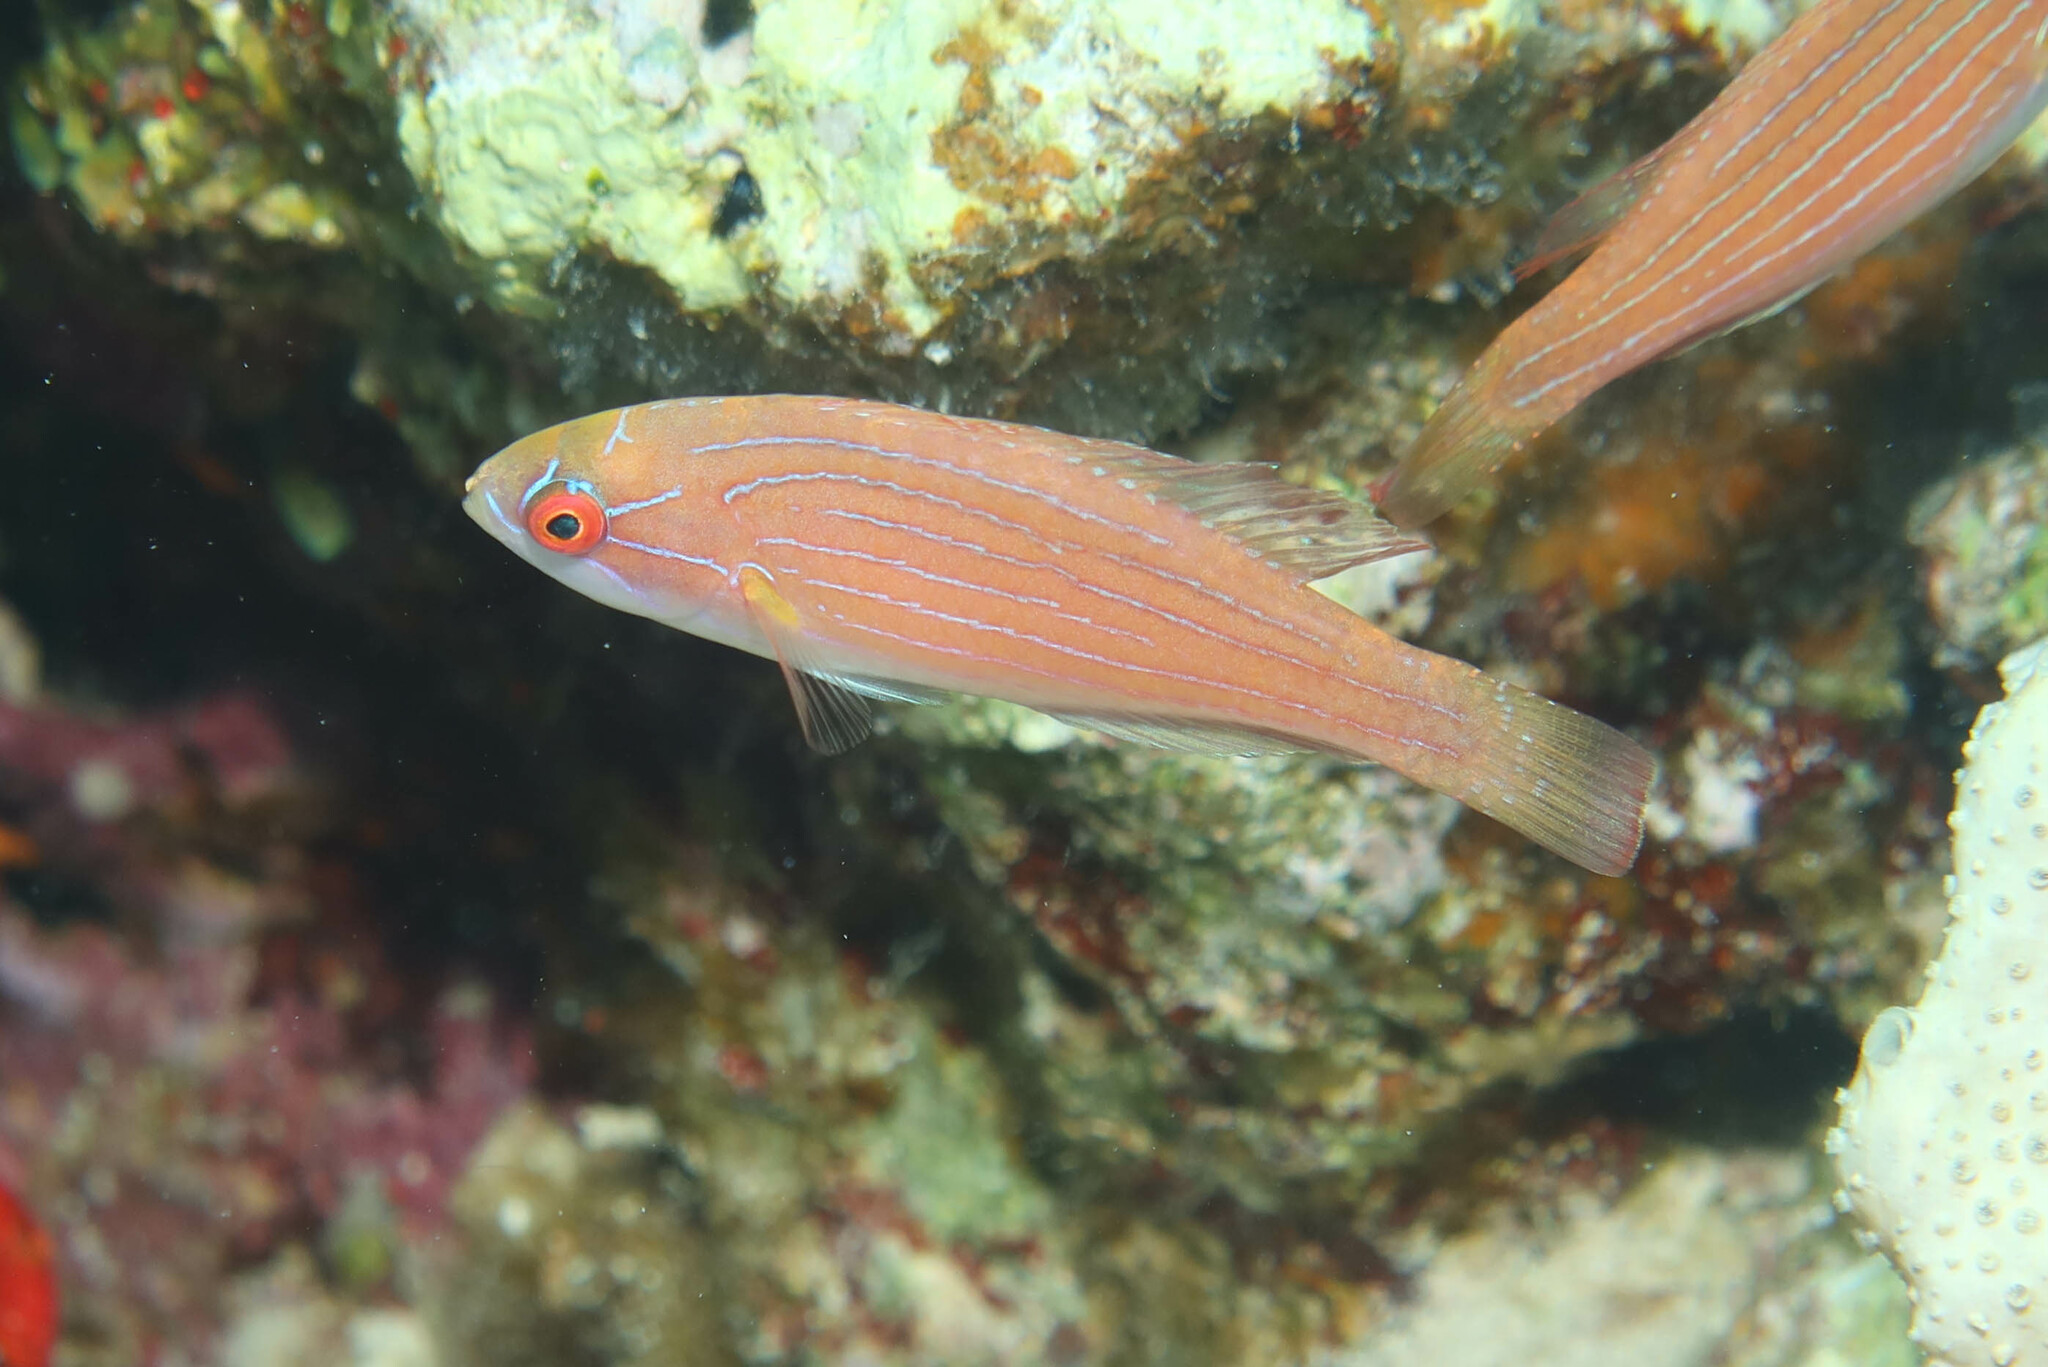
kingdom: Animalia
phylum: Chordata
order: Perciformes
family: Labridae
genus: Paracheilinus
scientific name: Paracheilinus octotaenia
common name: Red sea eightline flasher
